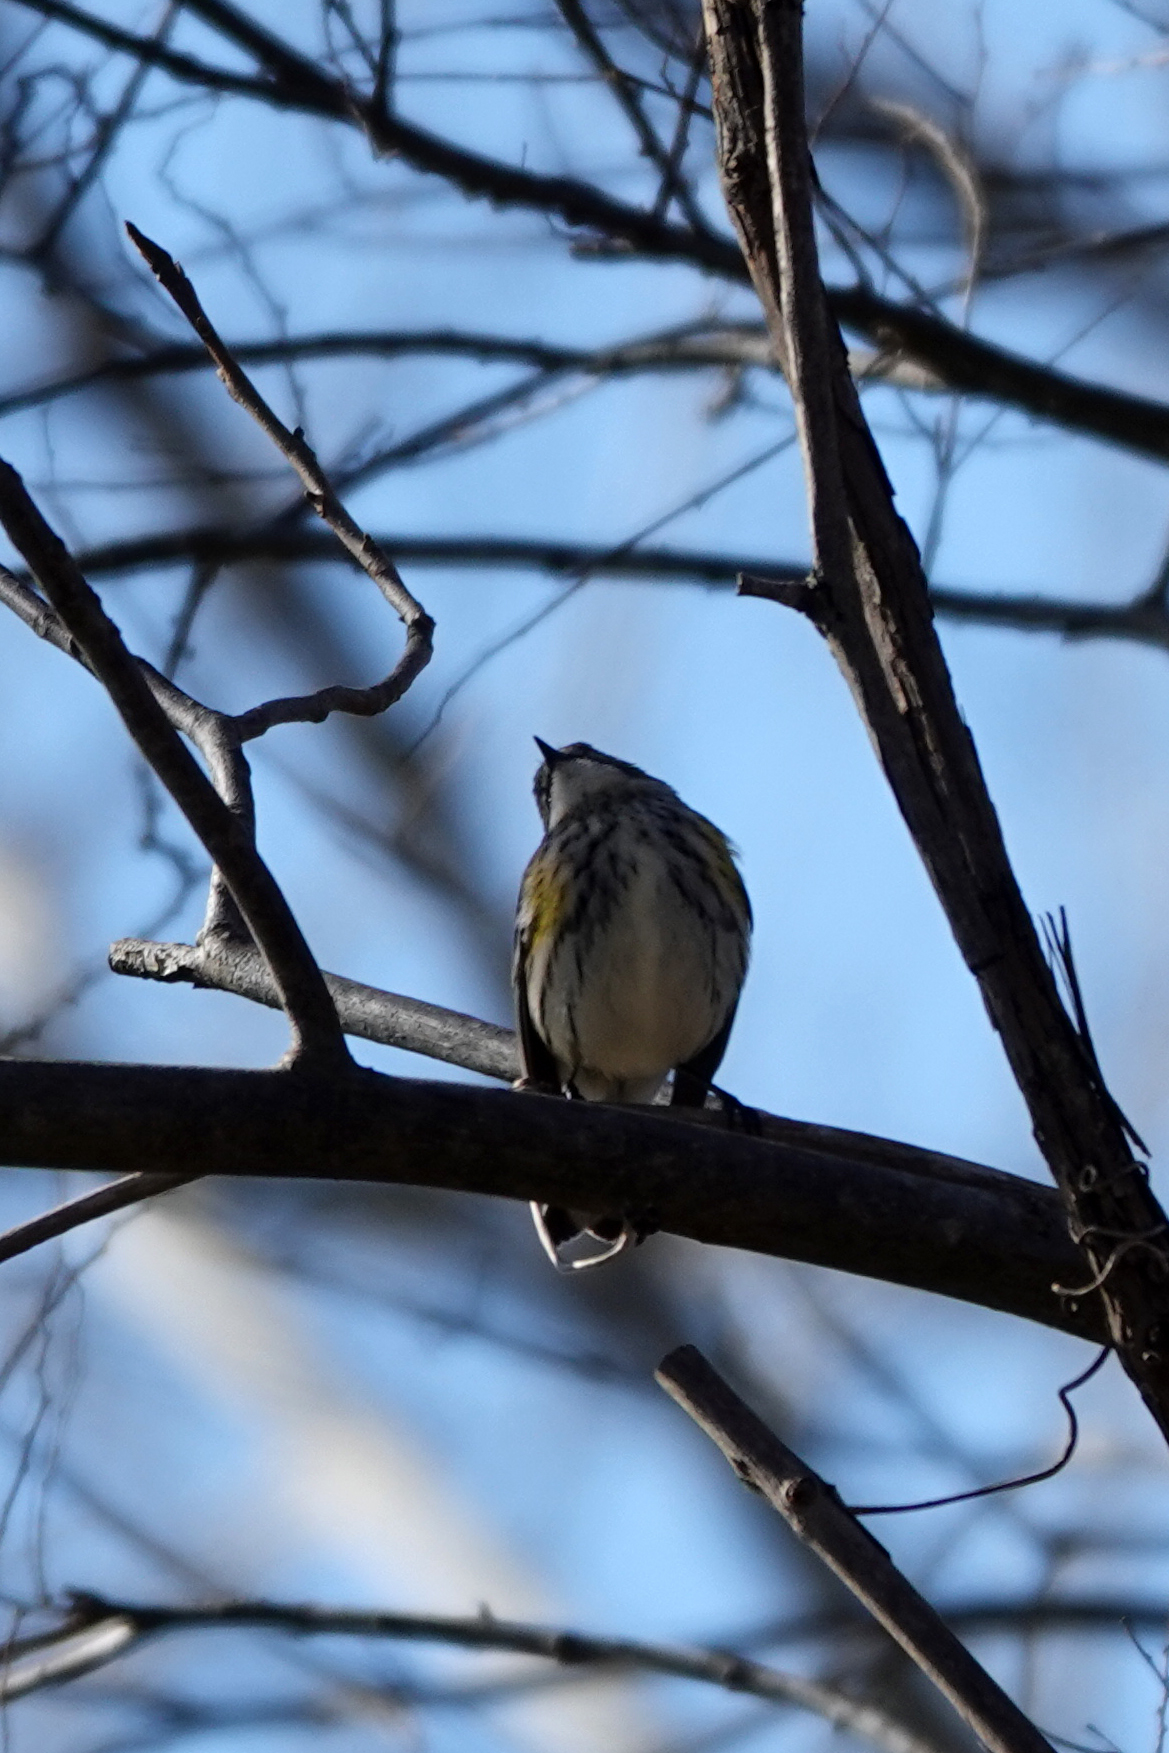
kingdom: Animalia
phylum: Chordata
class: Aves
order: Passeriformes
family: Parulidae
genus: Setophaga
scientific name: Setophaga coronata
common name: Myrtle warbler
